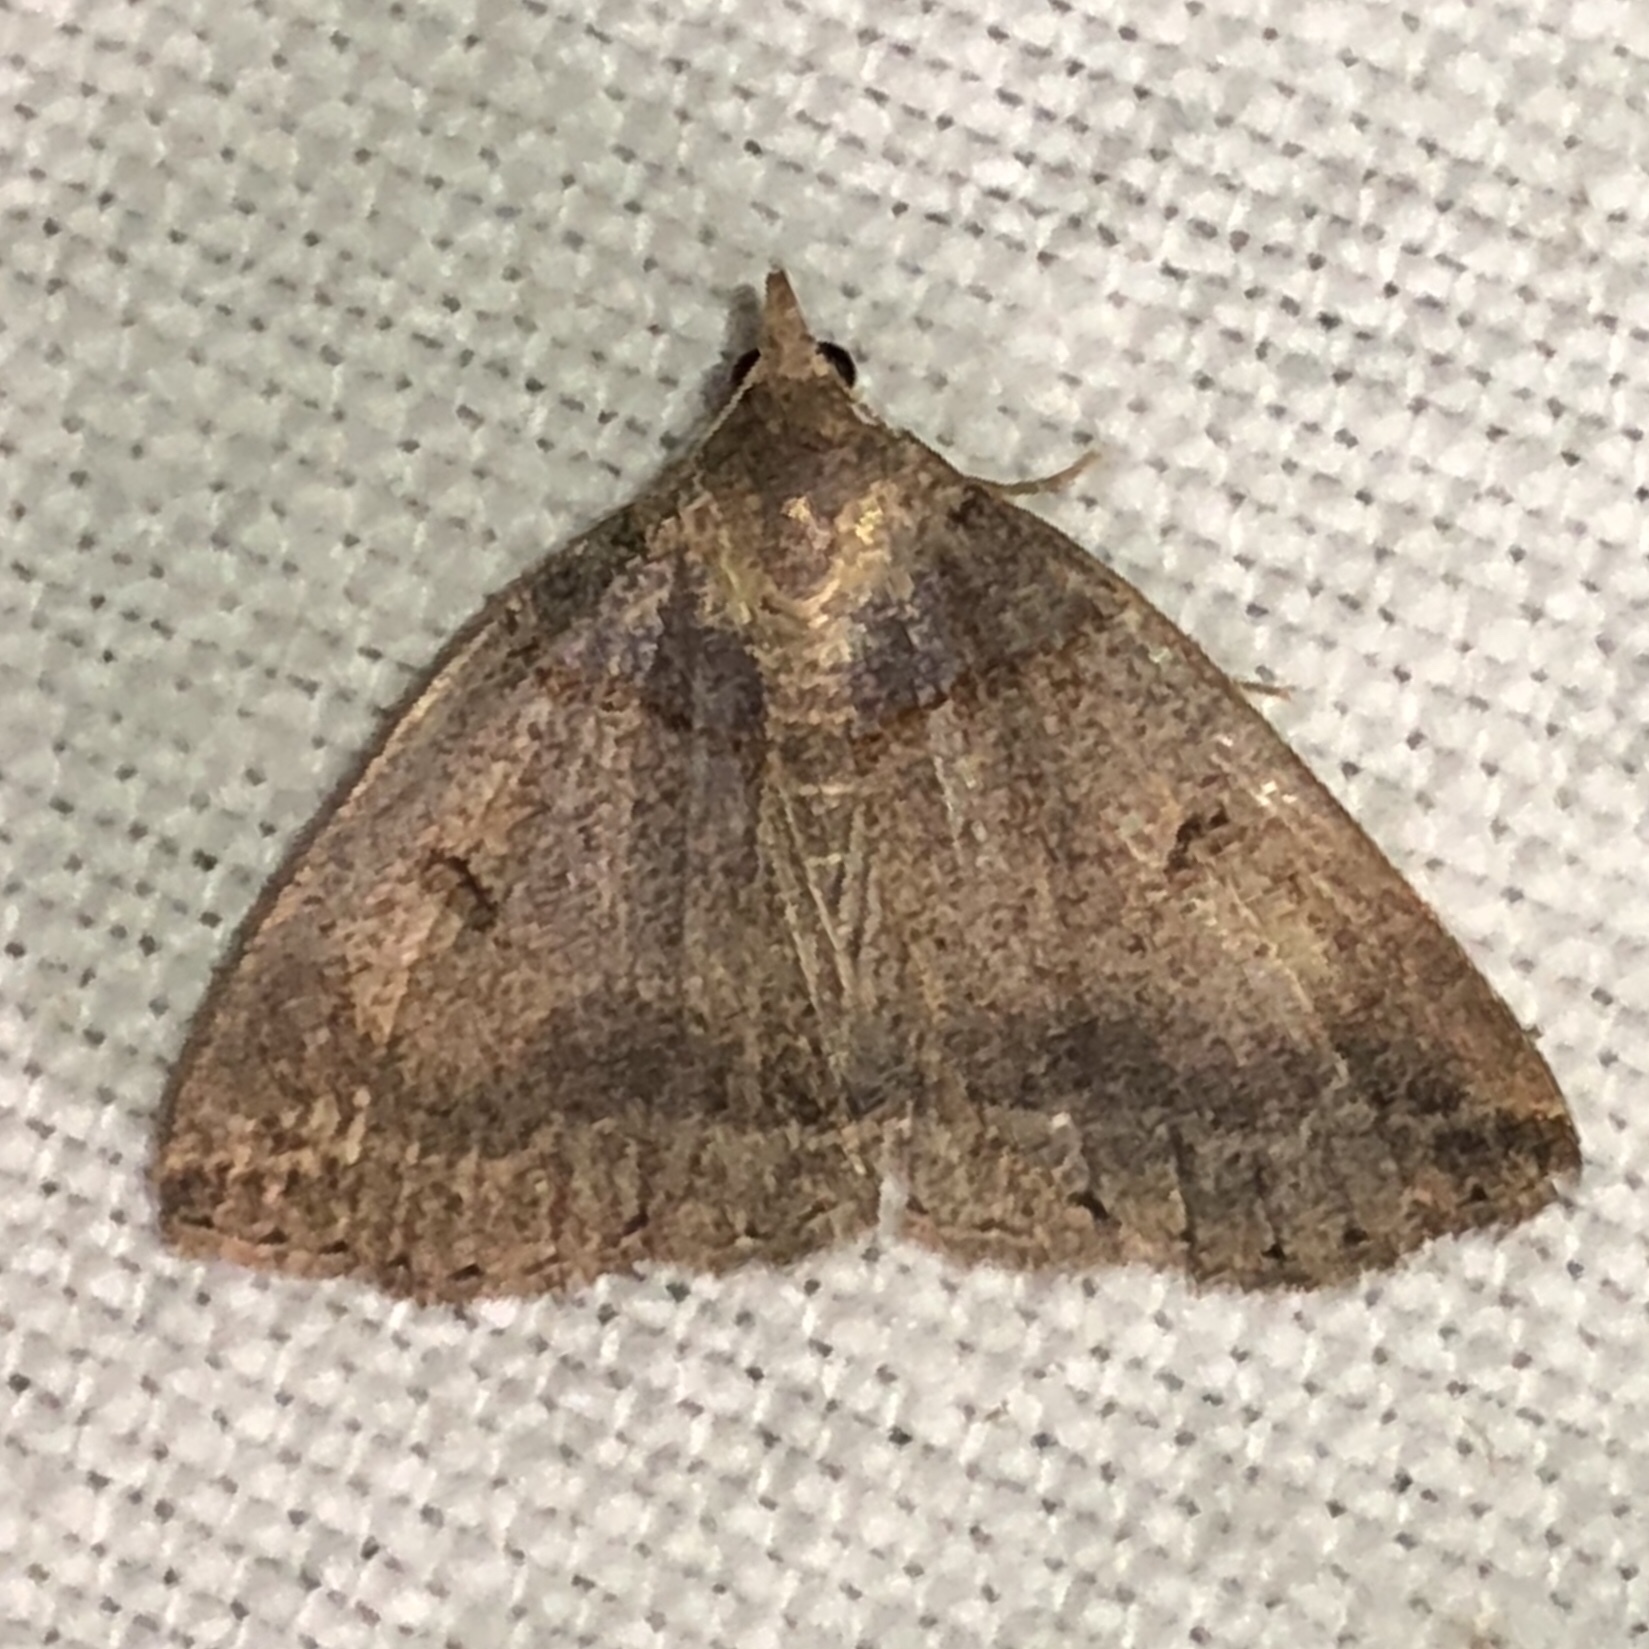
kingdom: Animalia
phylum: Arthropoda
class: Insecta
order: Lepidoptera
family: Erebidae
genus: Zanclognatha
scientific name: Zanclognatha laevigata
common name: Variable fan-foot
